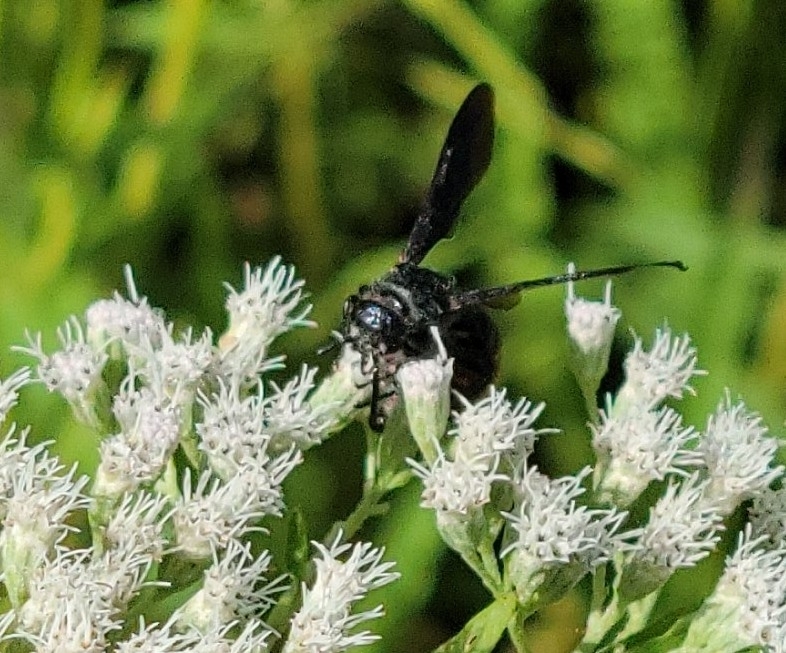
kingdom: Animalia
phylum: Arthropoda
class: Insecta
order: Hymenoptera
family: Scoliidae
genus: Scolia
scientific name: Scolia dubia
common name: Blue-winged scoliid wasp
